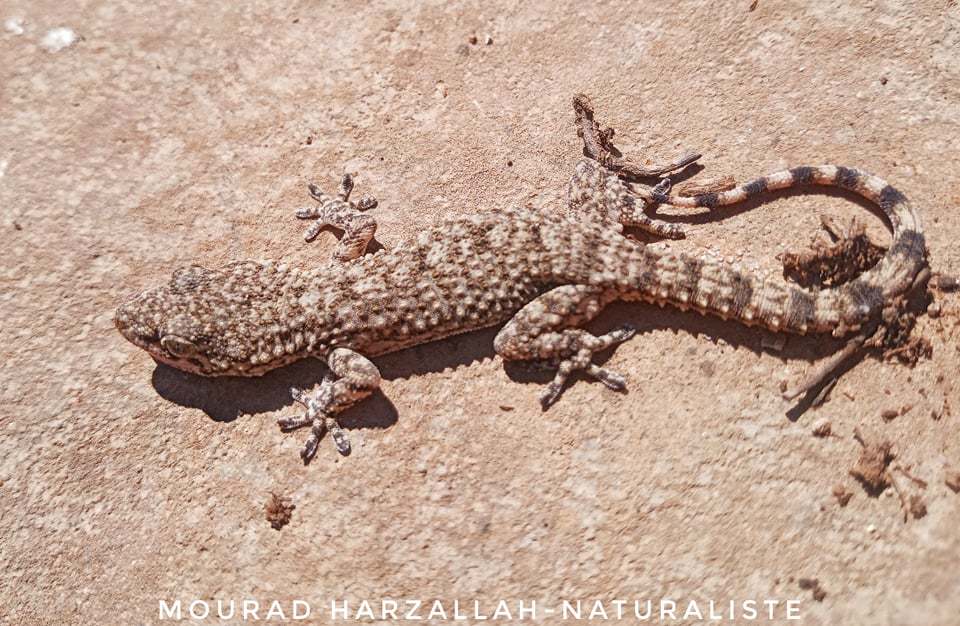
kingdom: Animalia
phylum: Chordata
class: Squamata
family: Phyllodactylidae
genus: Tarentola
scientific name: Tarentola mauritanica
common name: Moorish gecko
